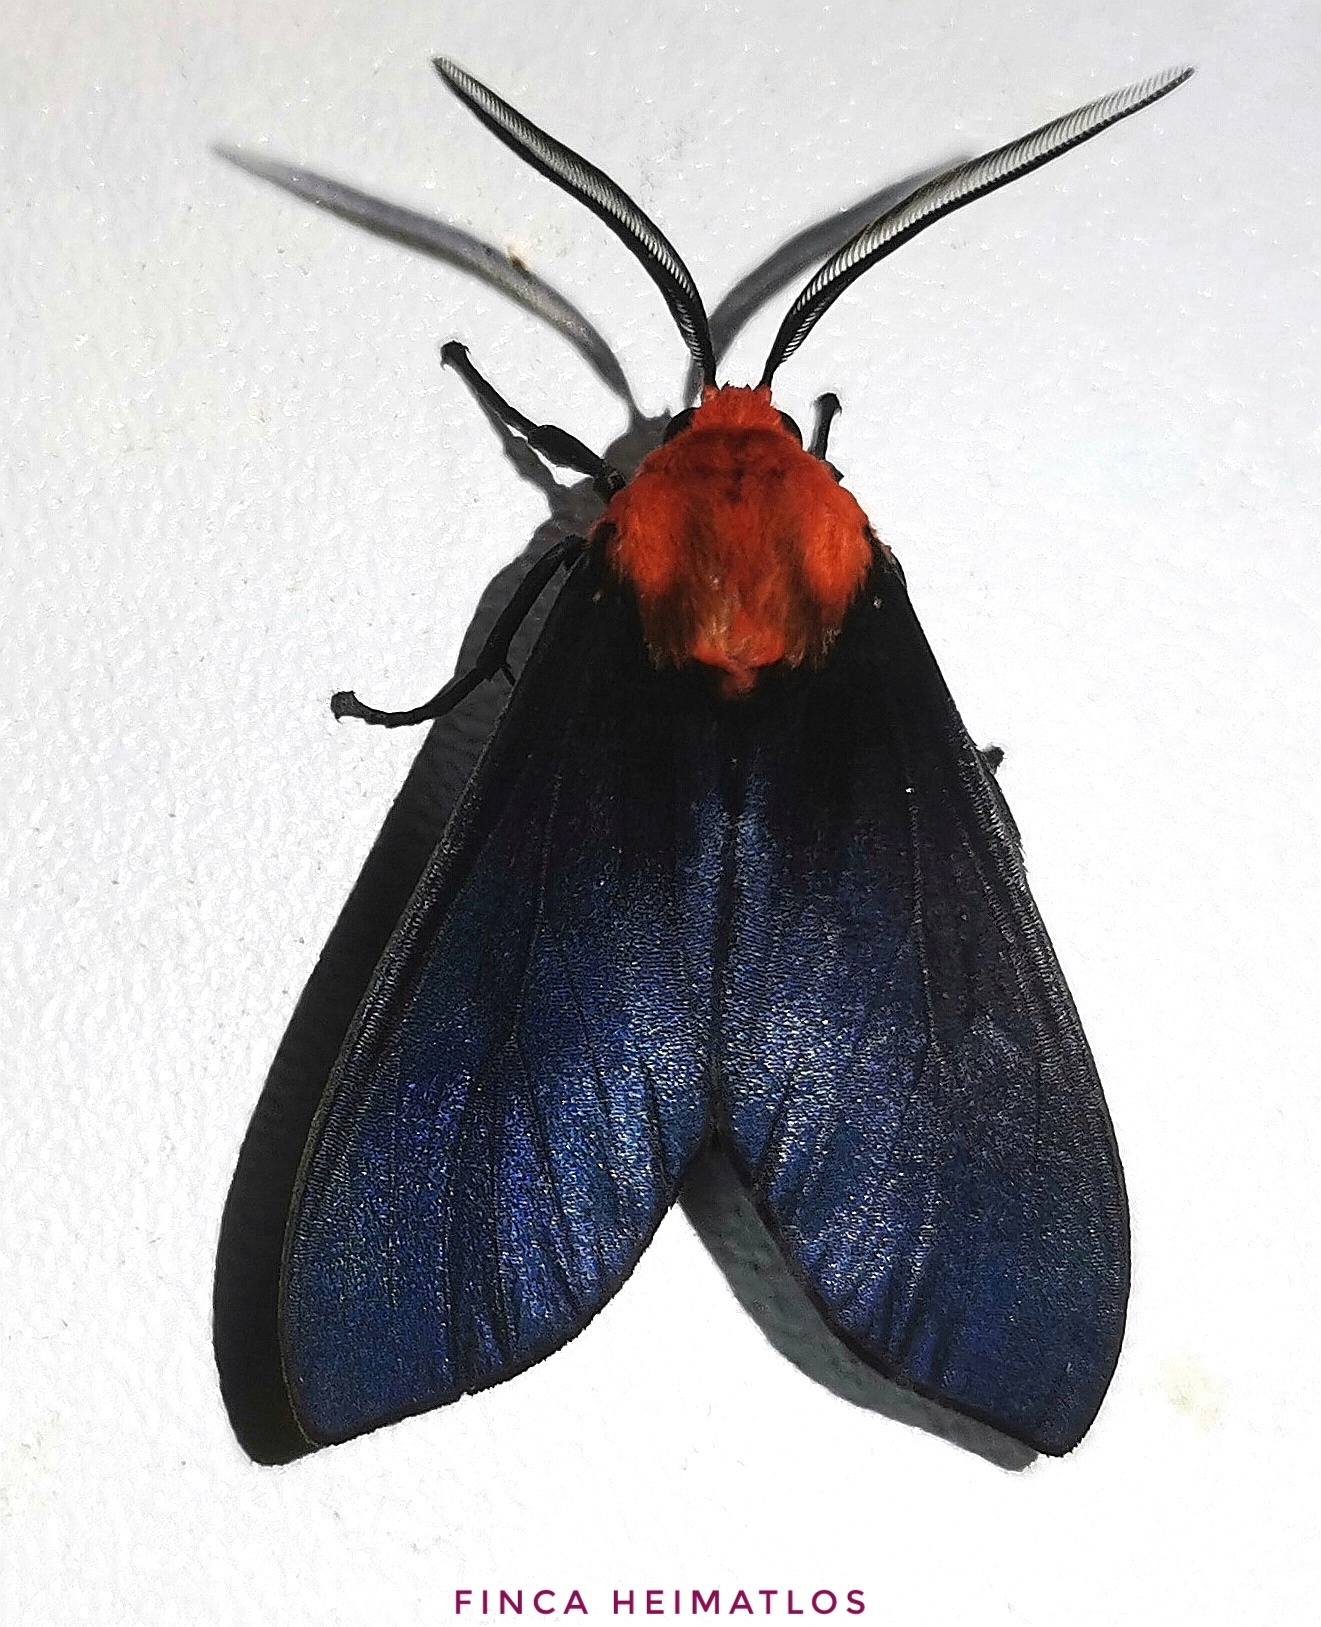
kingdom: Animalia
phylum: Arthropoda
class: Insecta
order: Lepidoptera
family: Erebidae
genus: Ammalo
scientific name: Ammalo klagesi
